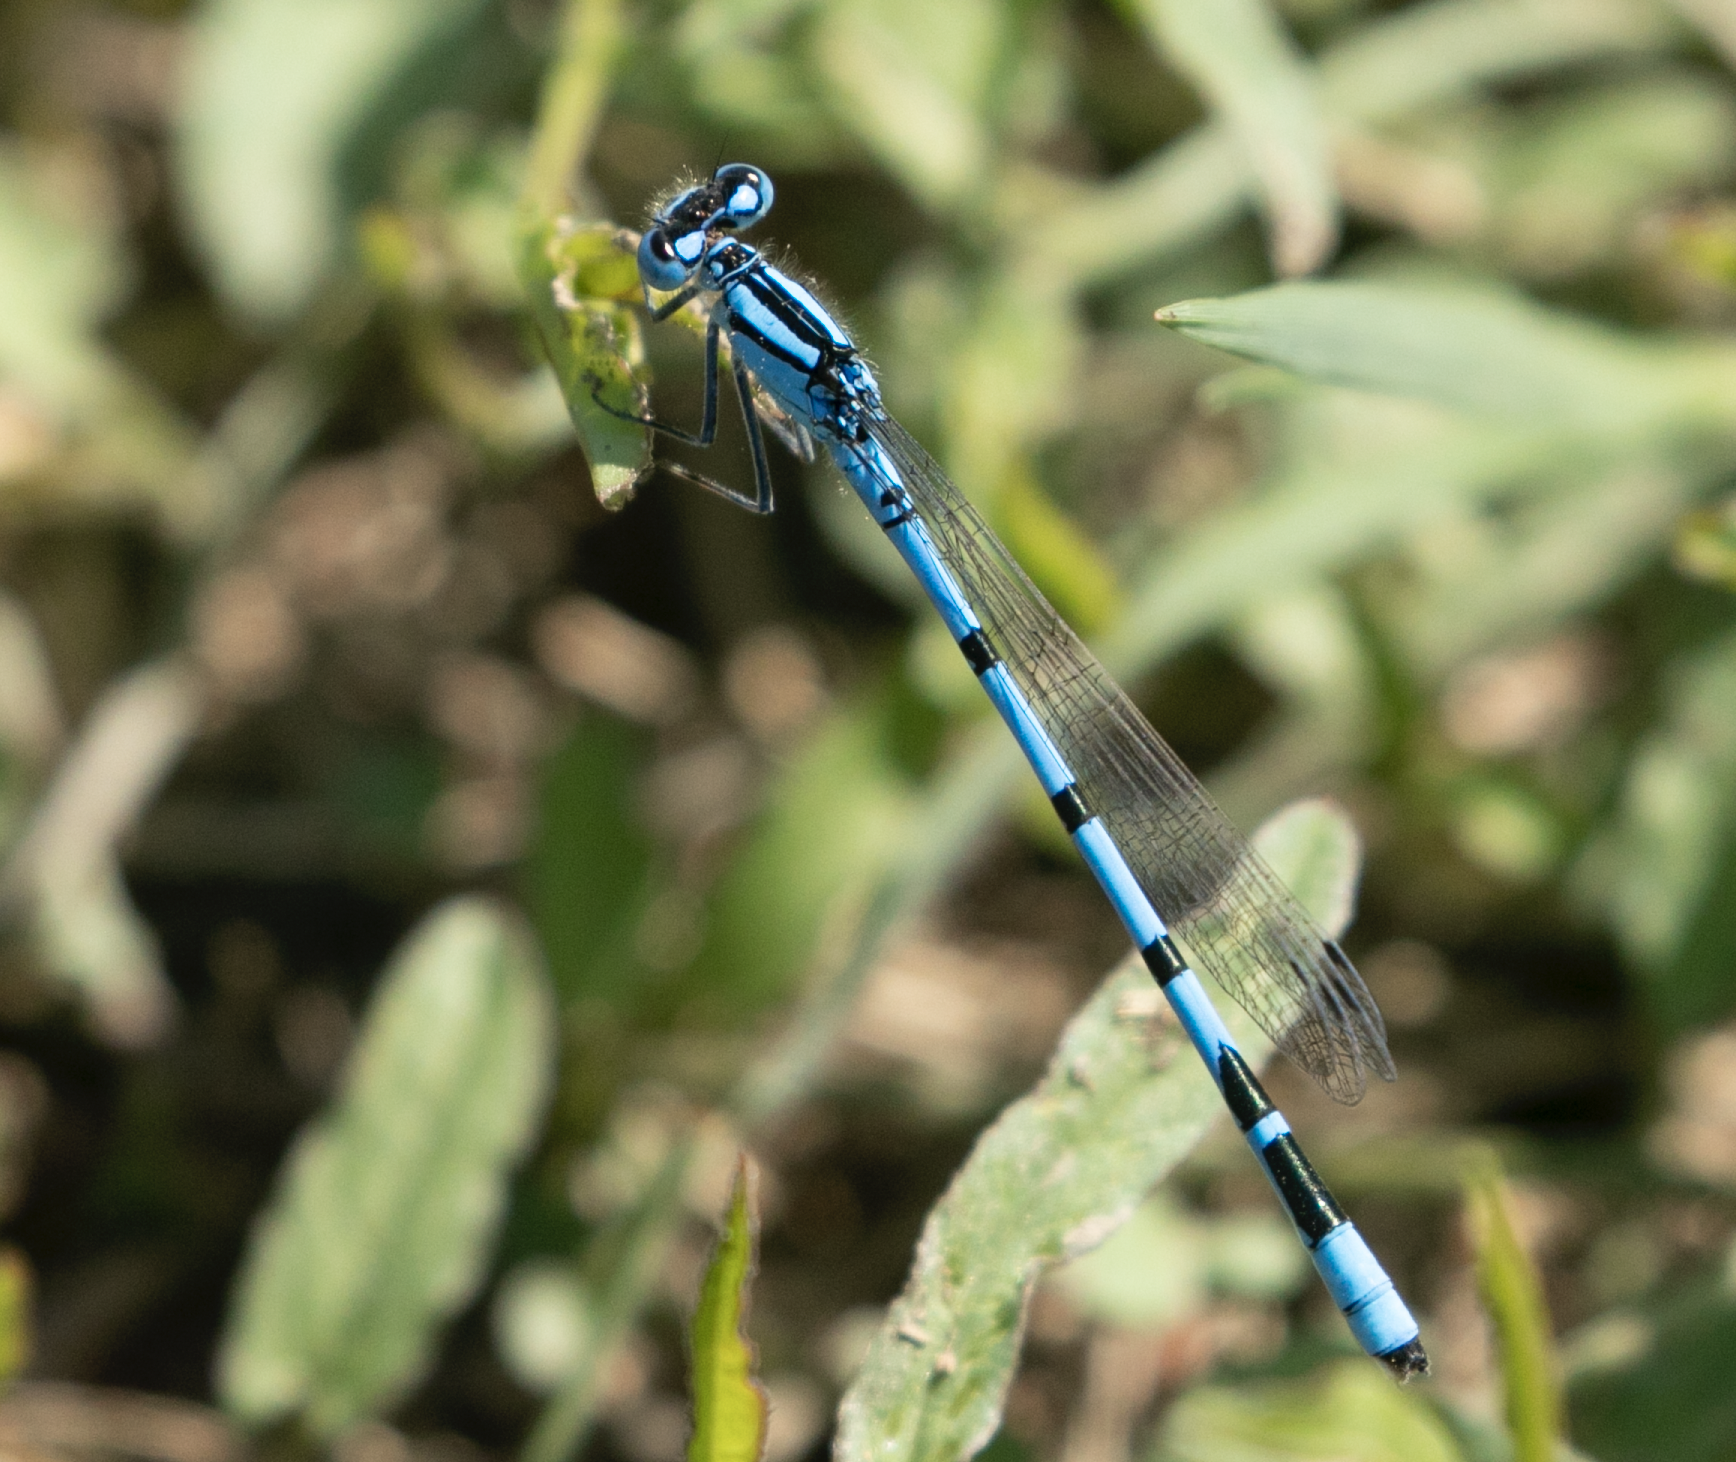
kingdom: Animalia
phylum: Arthropoda
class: Insecta
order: Odonata
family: Coenagrionidae
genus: Enallagma
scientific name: Enallagma cyathigerum
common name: Common blue damselfly
